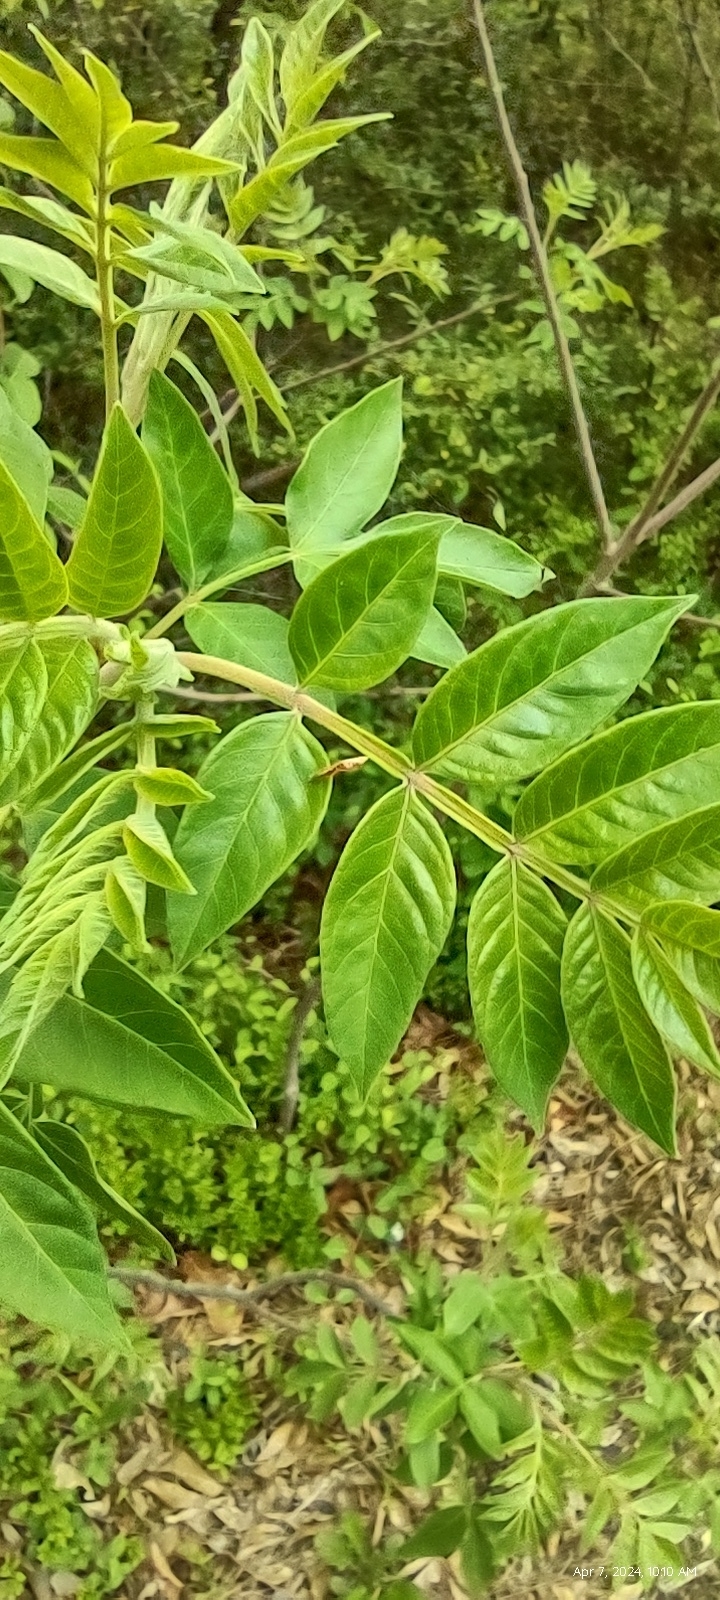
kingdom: Plantae
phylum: Tracheophyta
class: Magnoliopsida
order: Sapindales
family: Anacardiaceae
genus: Rhus
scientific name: Rhus copallina
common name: Shining sumac
